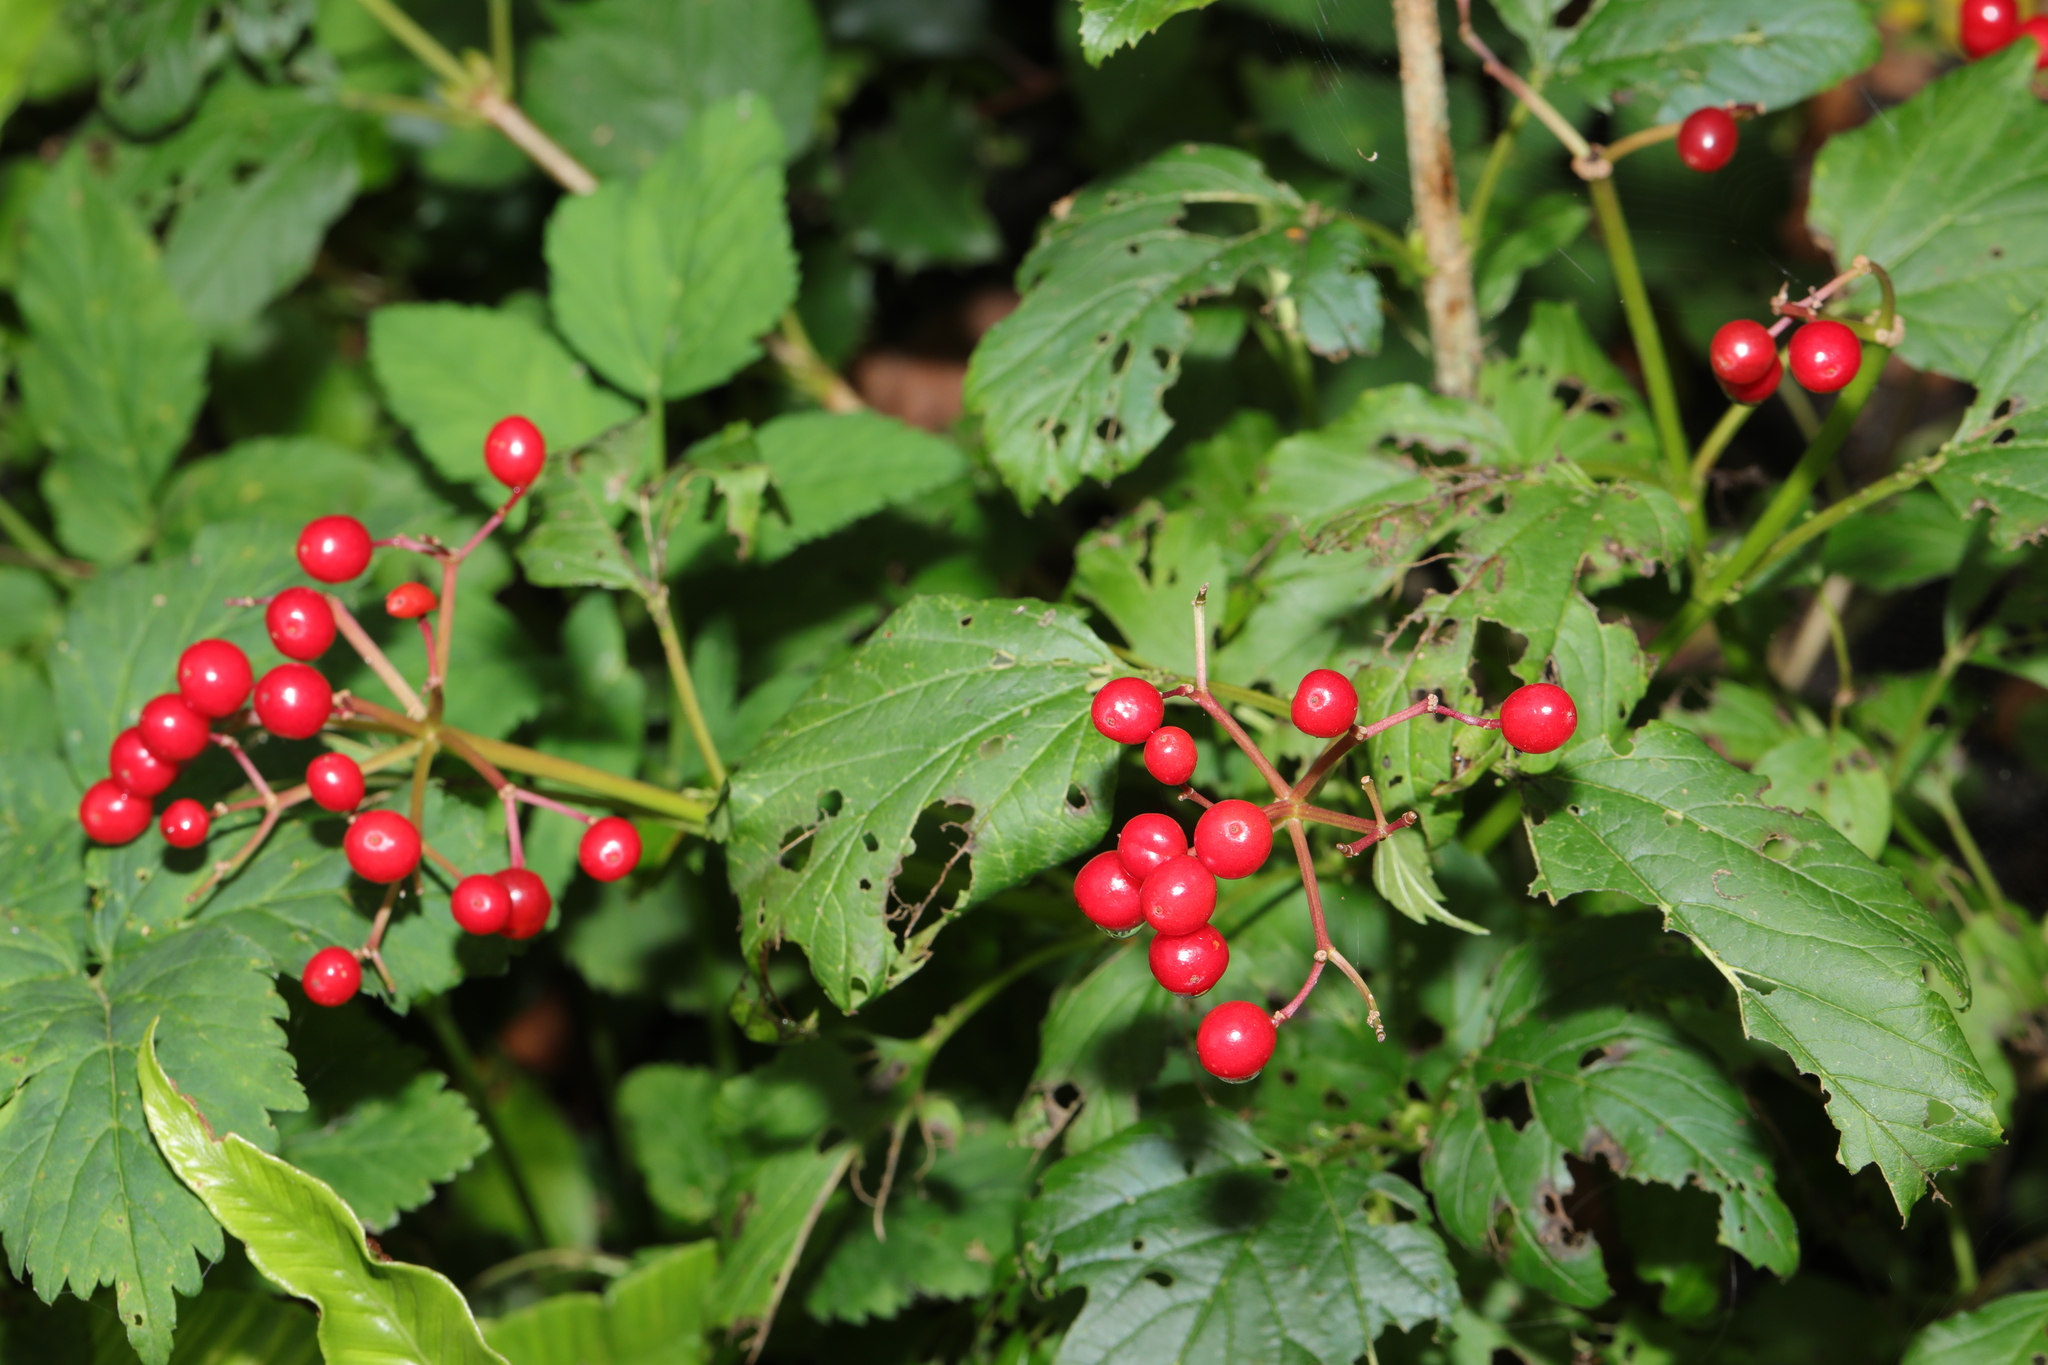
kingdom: Plantae
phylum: Tracheophyta
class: Magnoliopsida
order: Dipsacales
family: Viburnaceae
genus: Viburnum
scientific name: Viburnum opulus
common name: Guelder-rose
